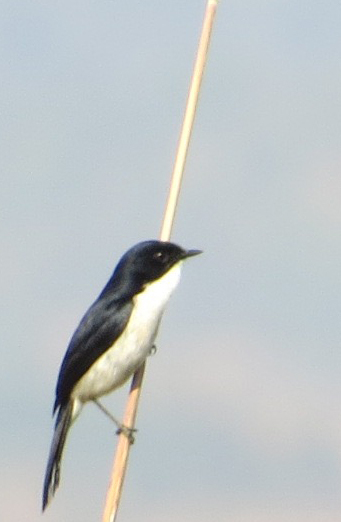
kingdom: Animalia
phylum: Chordata
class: Aves
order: Passeriformes
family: Muscicapidae
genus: Saxicola
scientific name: Saxicola jerdoni
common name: Jerdon's bush chat
